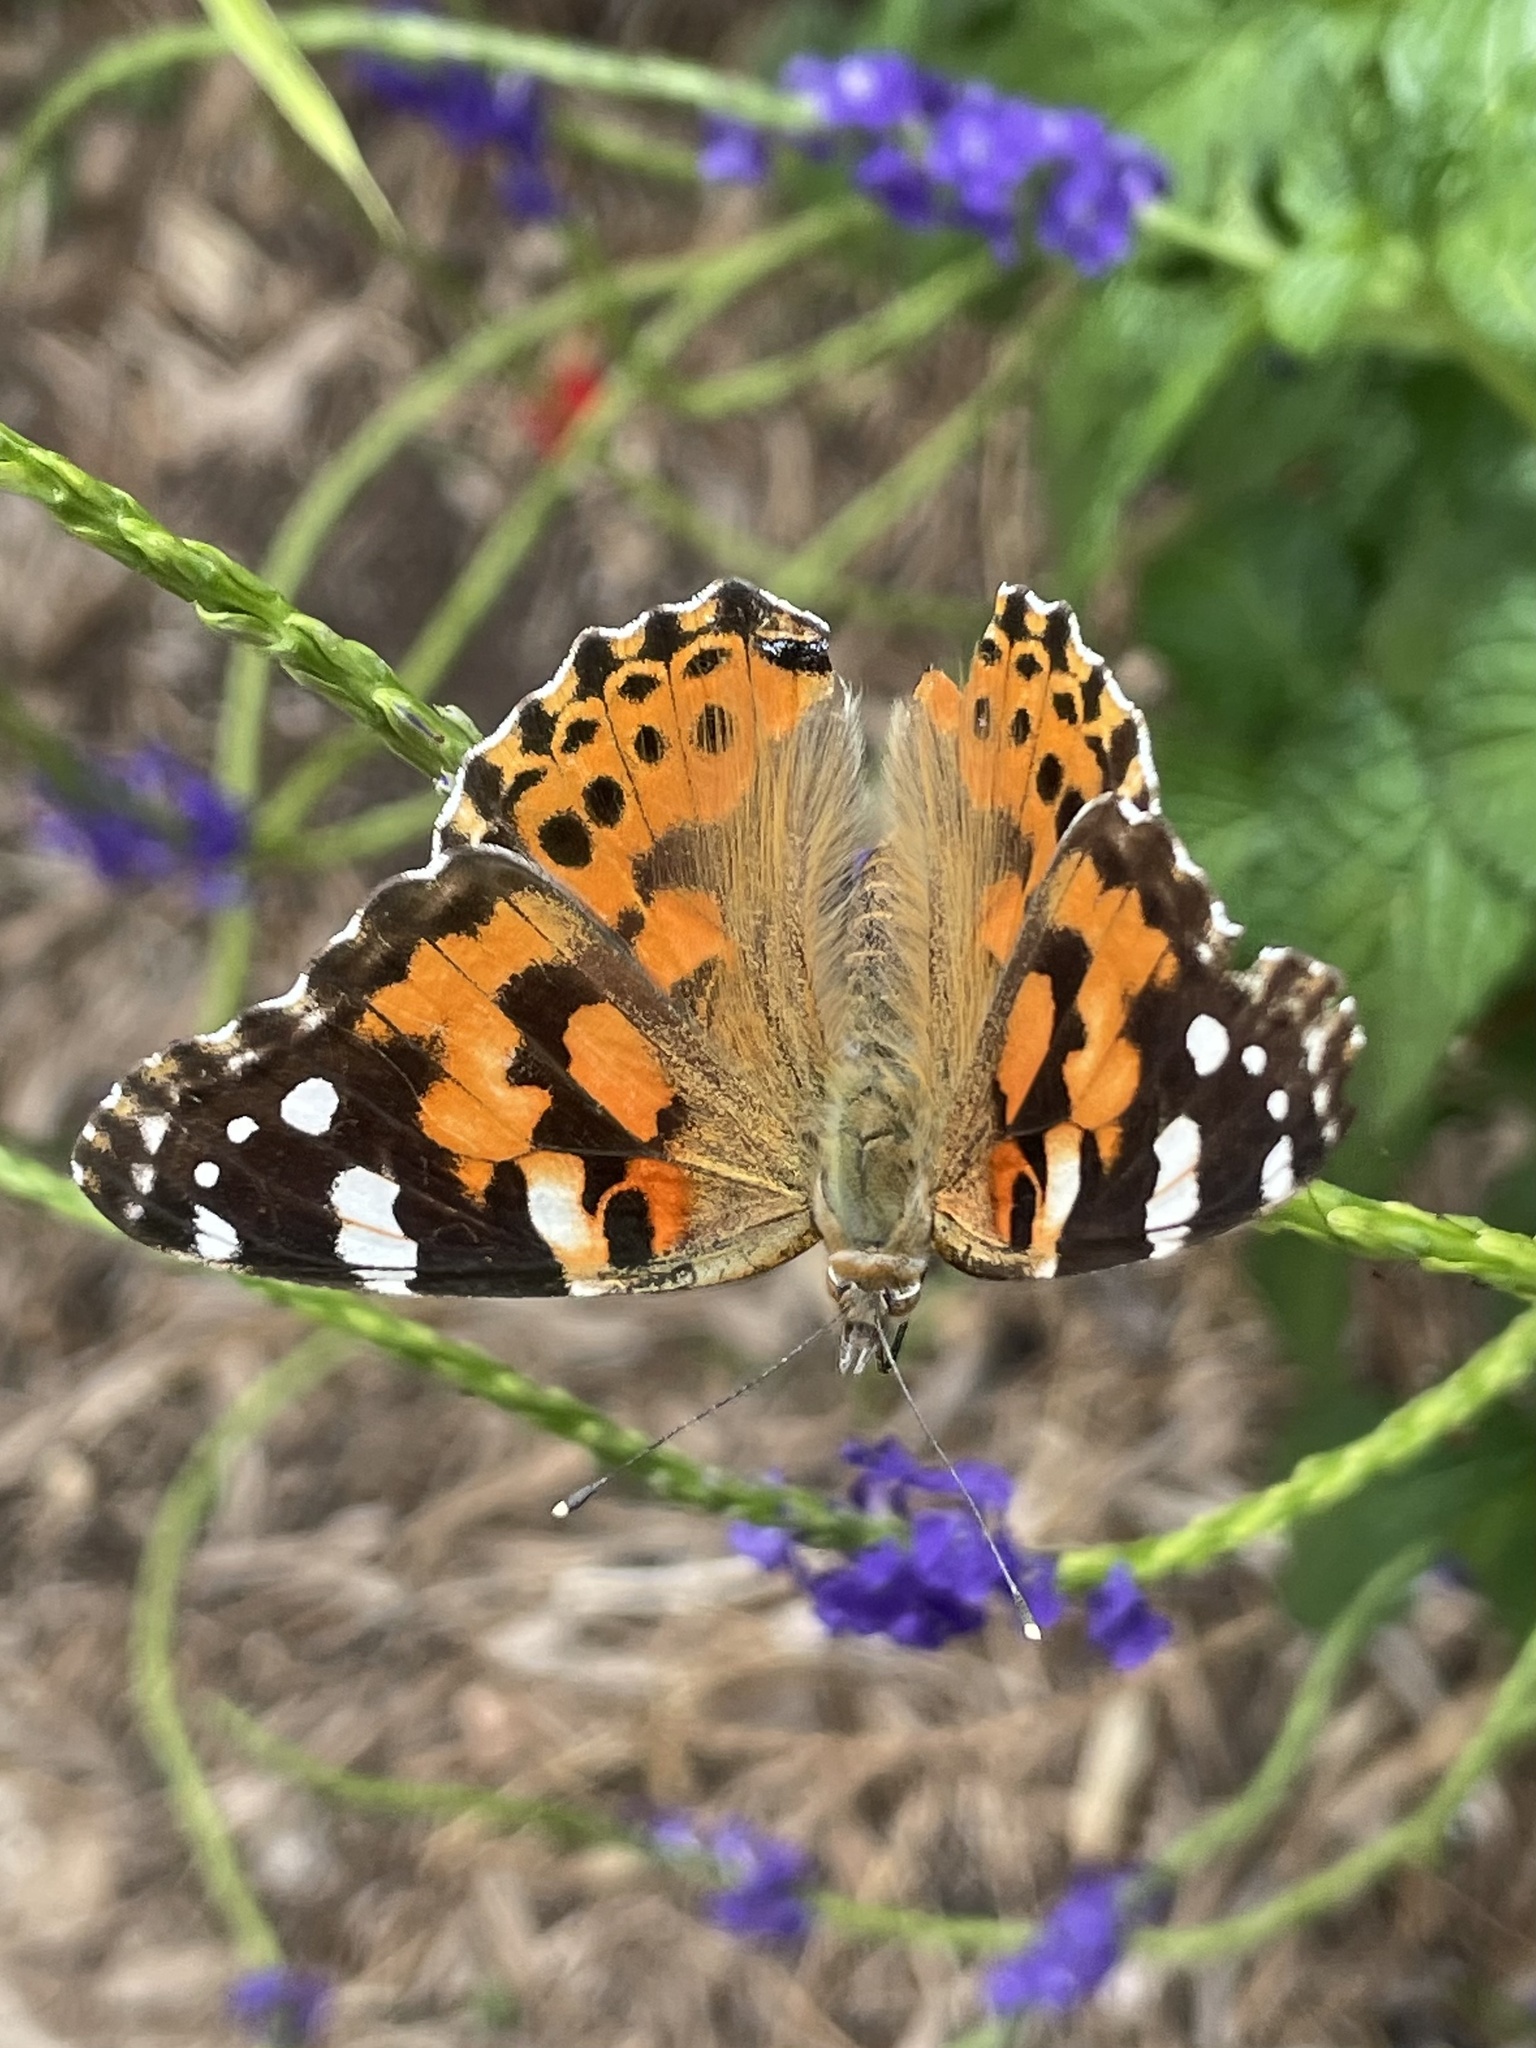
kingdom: Animalia
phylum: Arthropoda
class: Insecta
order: Lepidoptera
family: Nymphalidae
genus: Vanessa
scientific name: Vanessa cardui
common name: Painted lady
